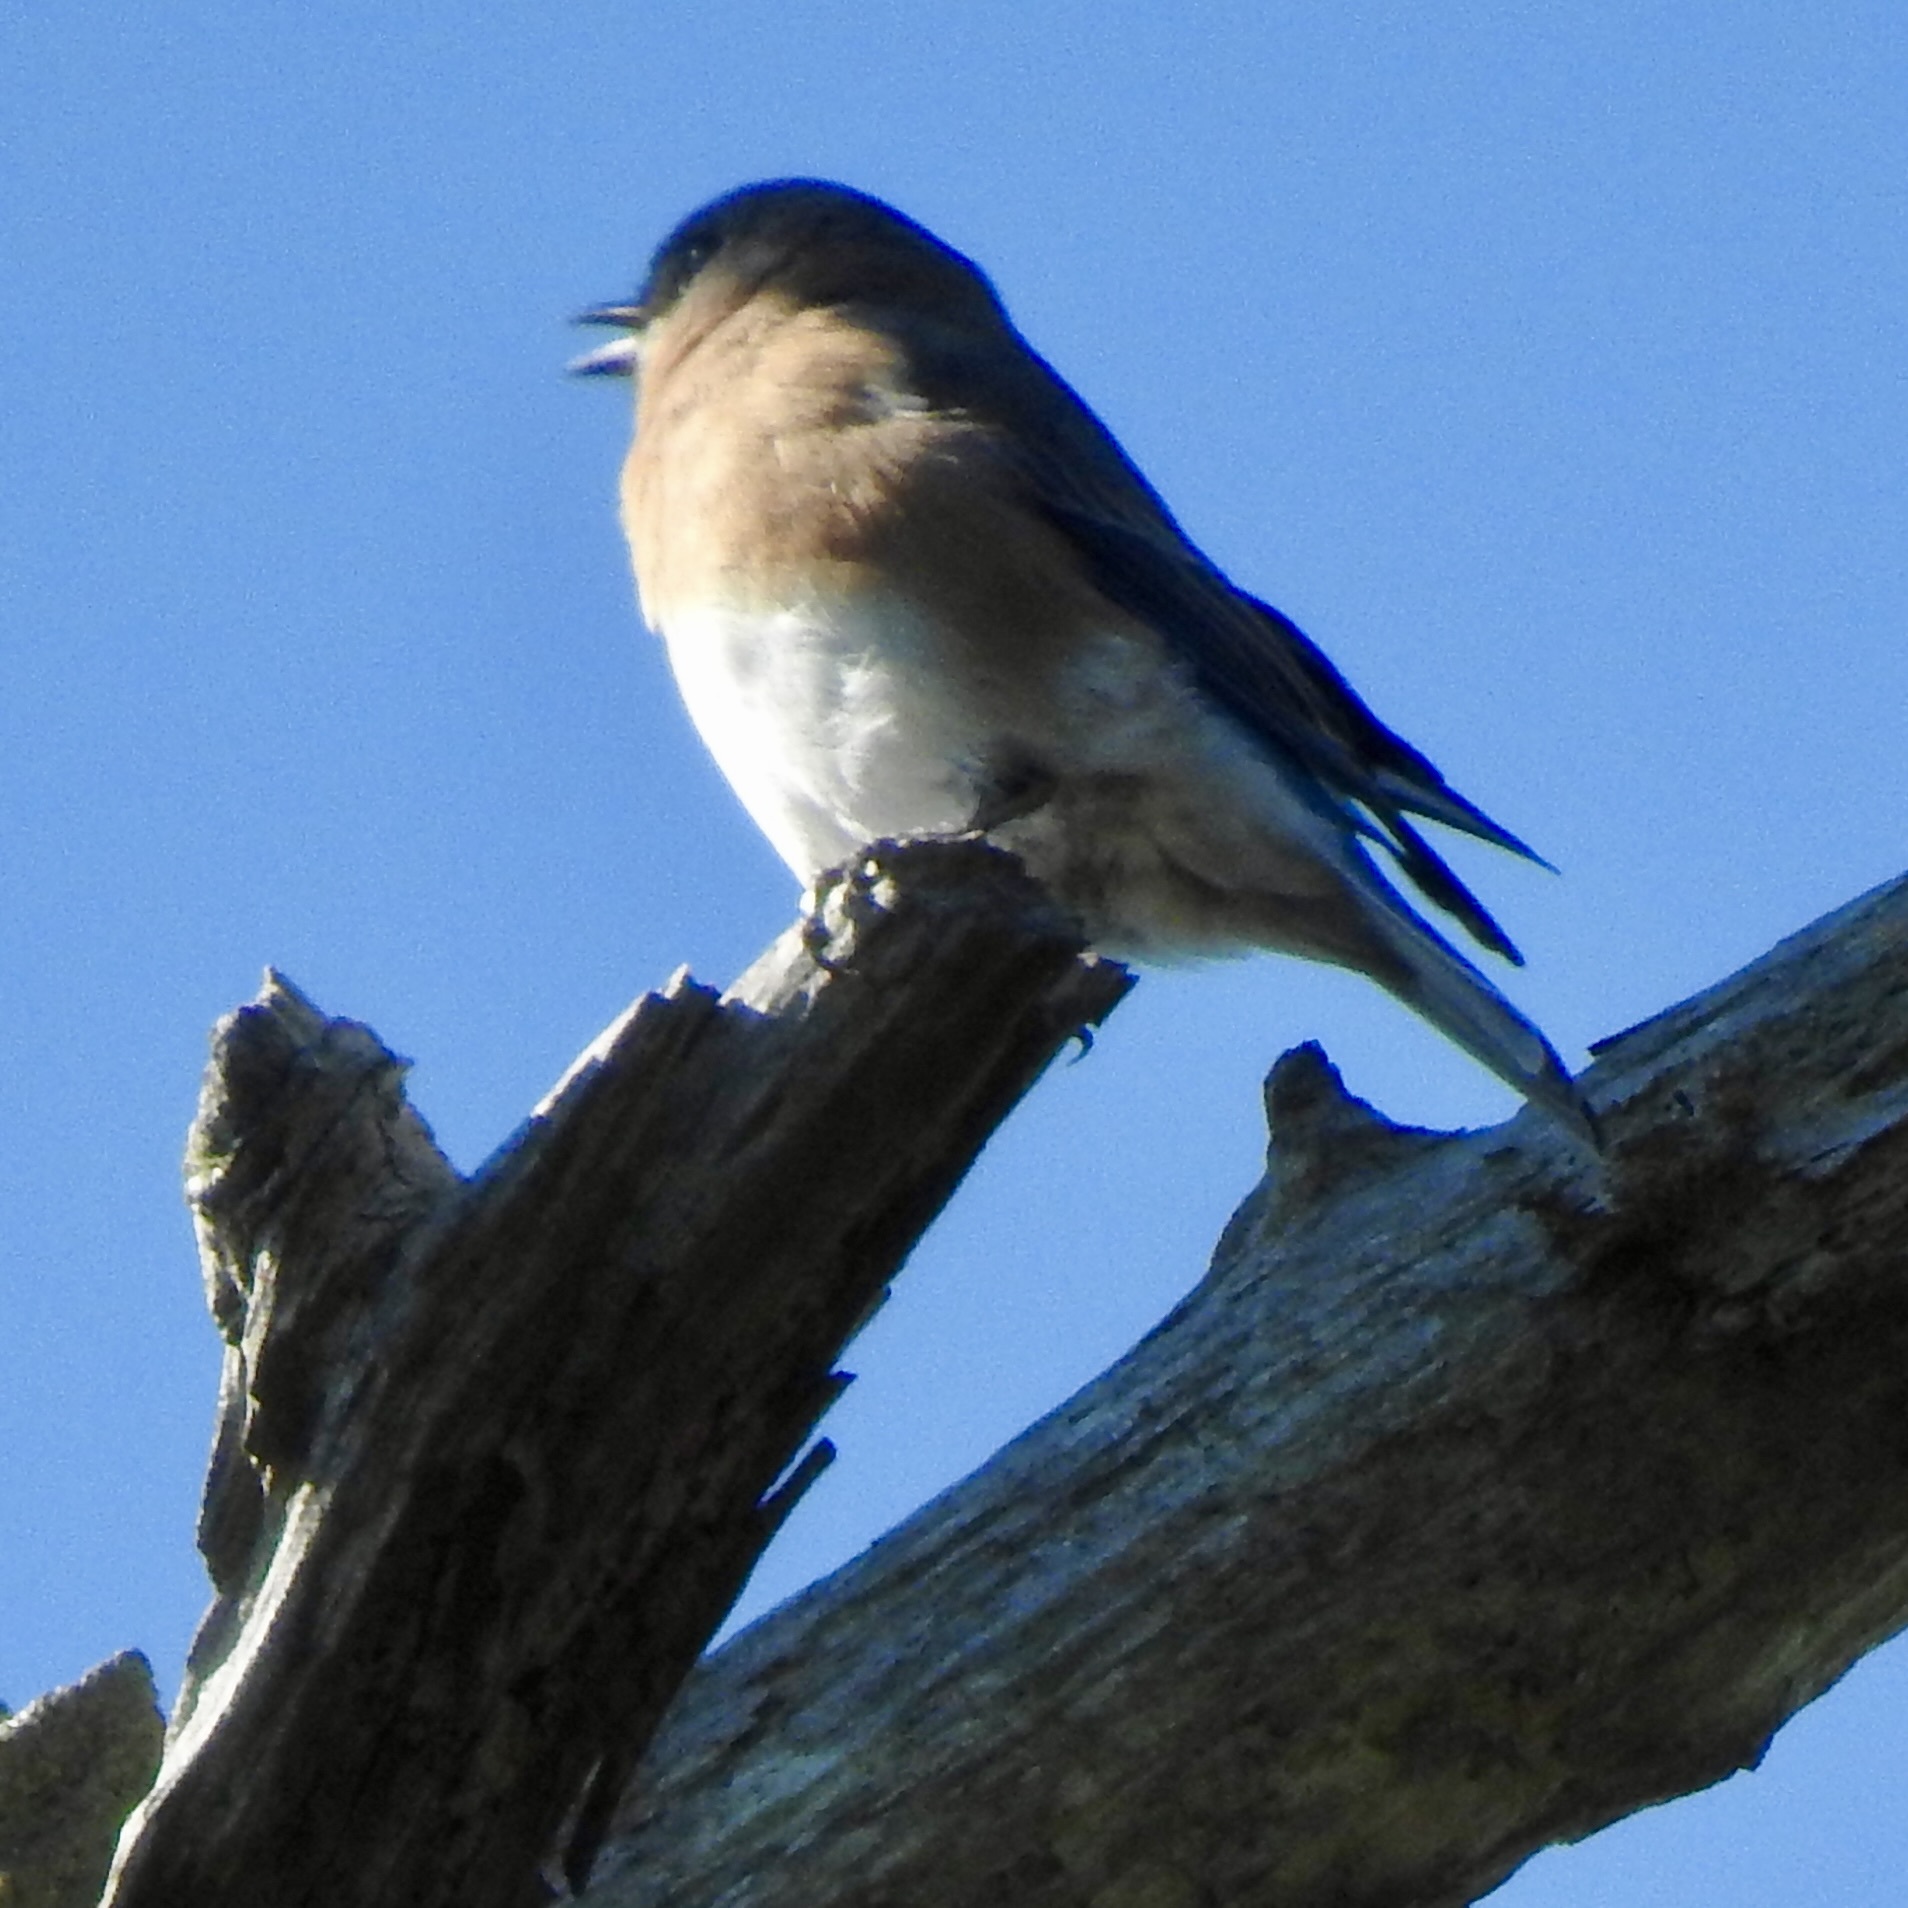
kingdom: Animalia
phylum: Chordata
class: Aves
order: Passeriformes
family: Turdidae
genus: Sialia
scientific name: Sialia sialis
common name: Eastern bluebird
